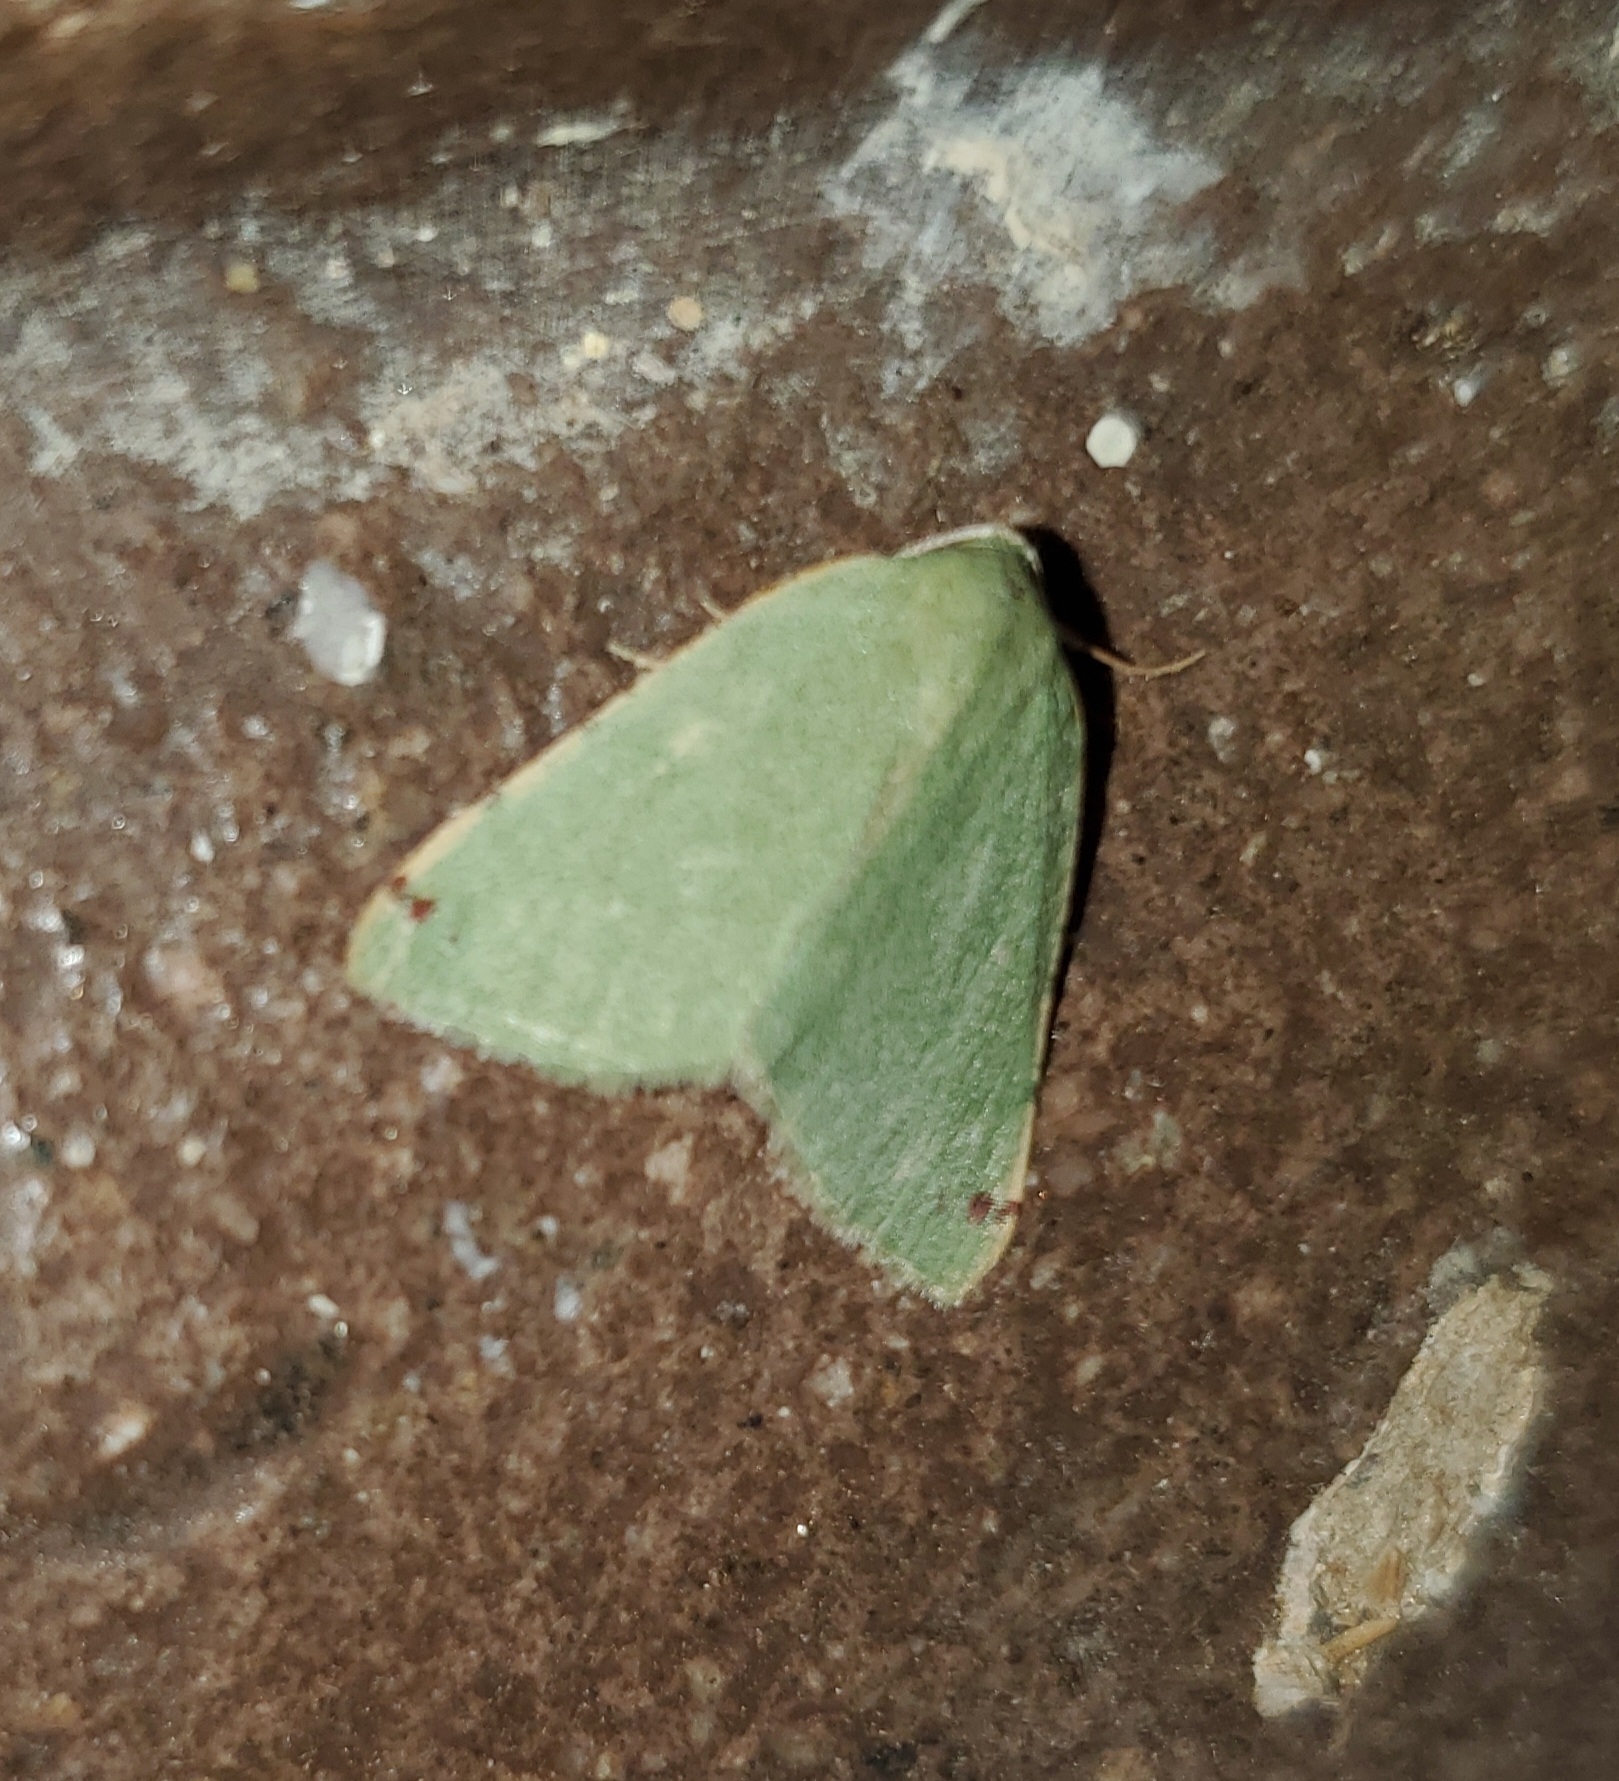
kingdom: Animalia
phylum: Arthropoda
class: Insecta
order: Lepidoptera
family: Geometridae
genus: Chloraspilates
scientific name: Chloraspilates bicoloraria
